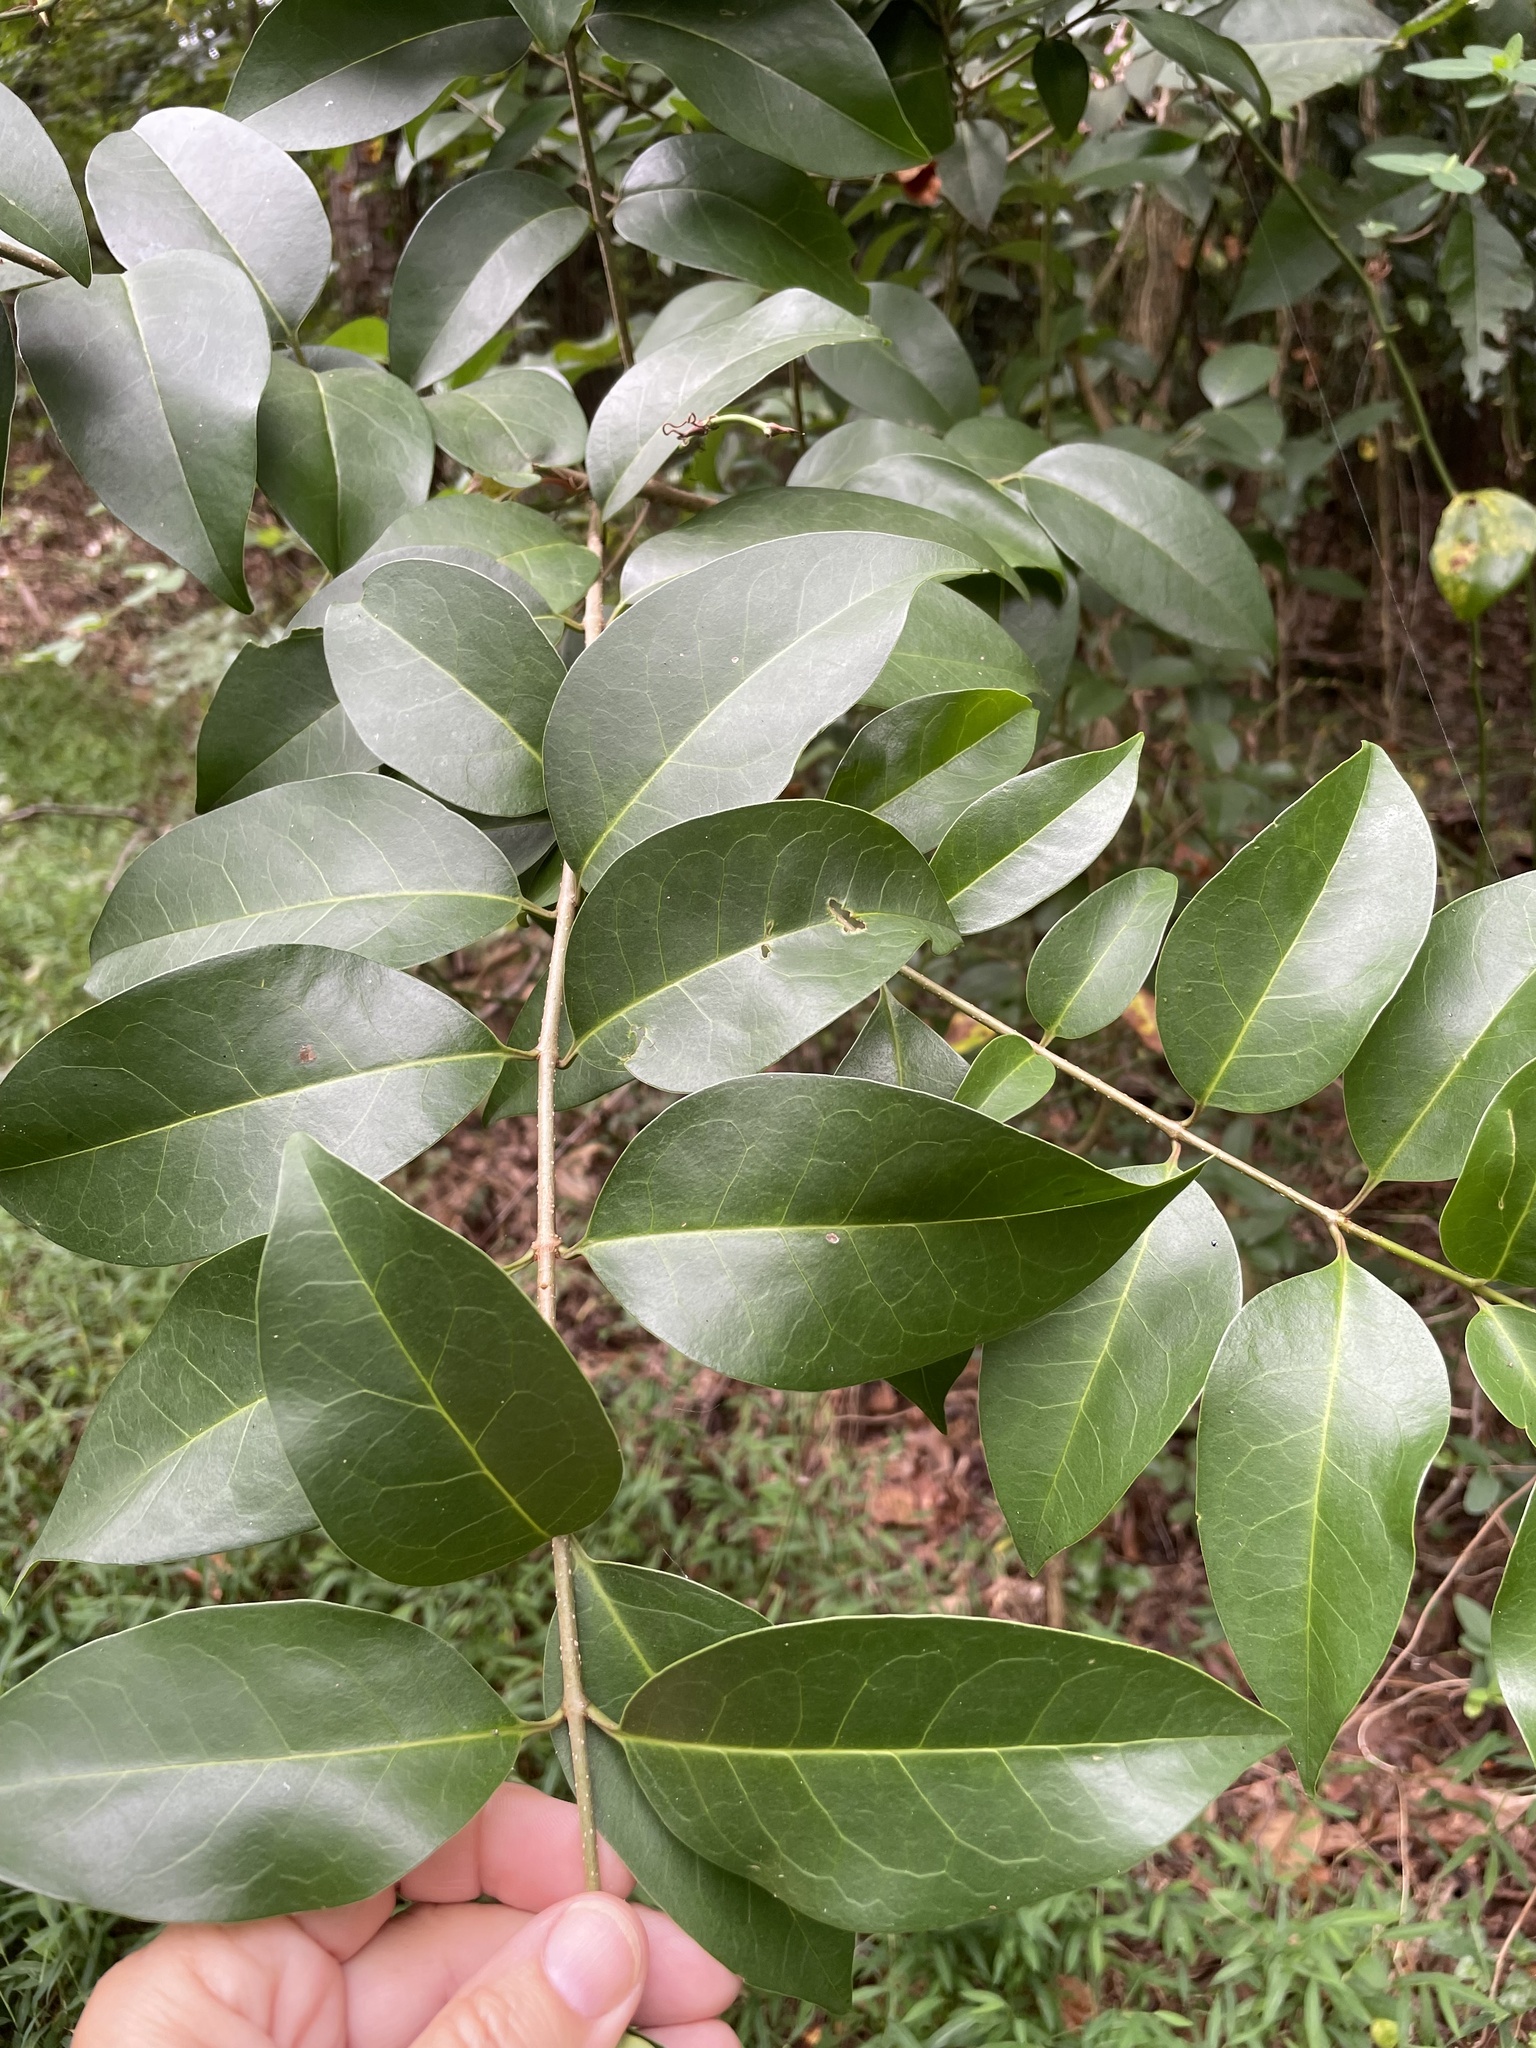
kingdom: Plantae
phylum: Tracheophyta
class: Magnoliopsida
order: Lamiales
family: Oleaceae
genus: Ligustrum
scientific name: Ligustrum lucidum
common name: Glossy privet
